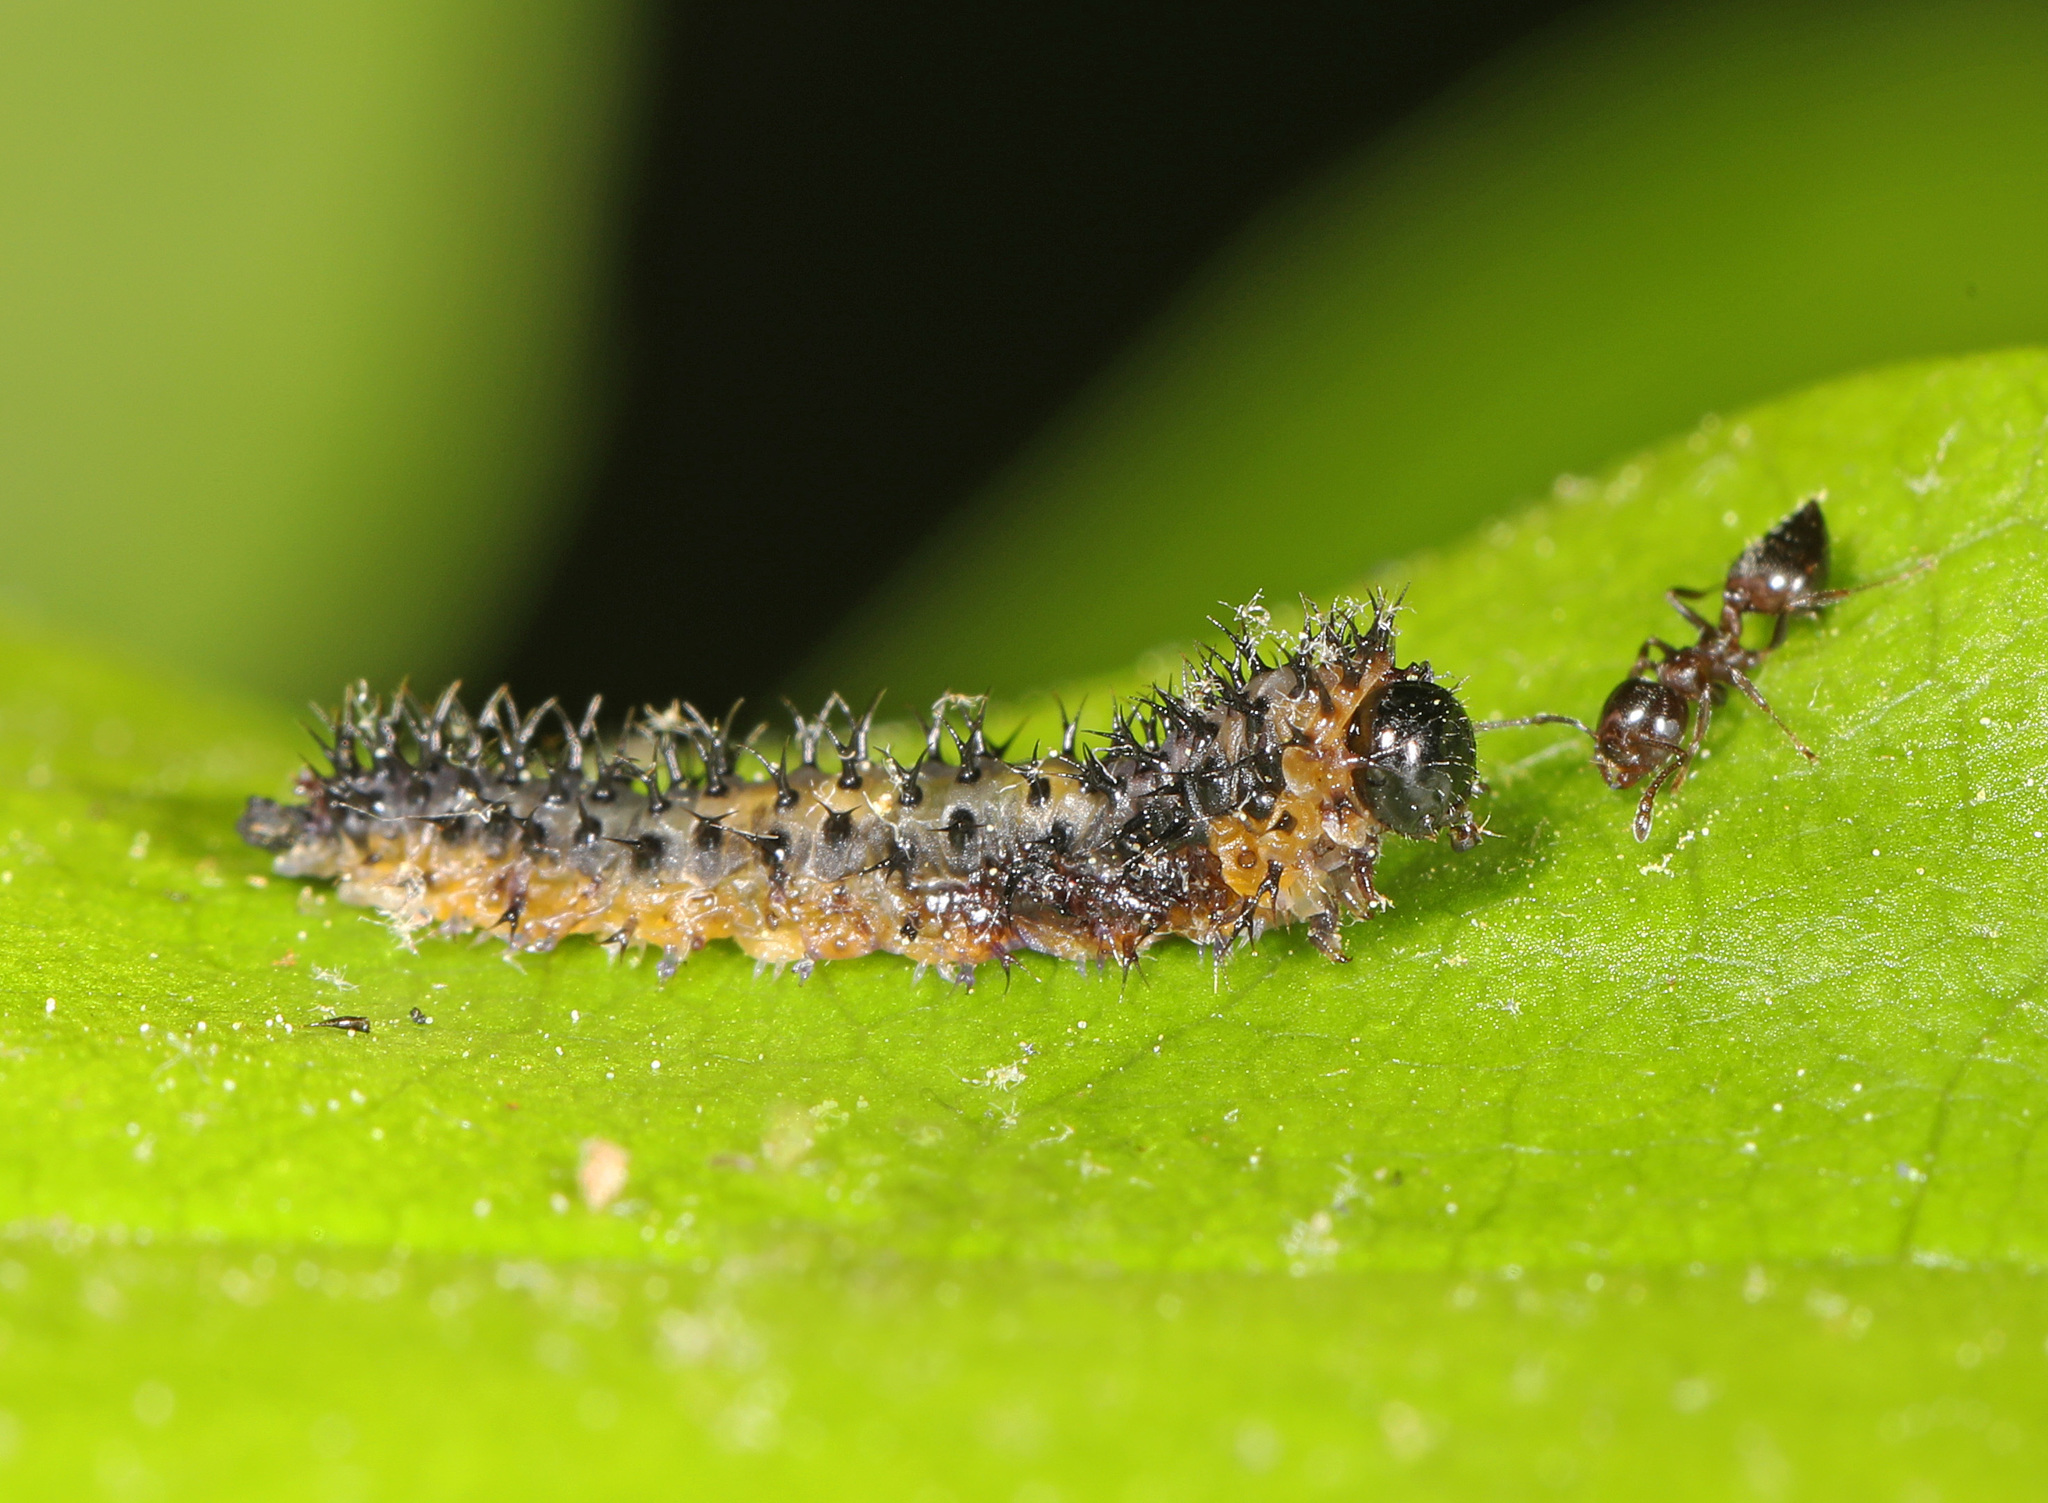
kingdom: Animalia
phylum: Arthropoda
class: Insecta
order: Hymenoptera
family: Tenthredinidae
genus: Eupareophora
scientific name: Eupareophora parca
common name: Sawfly
